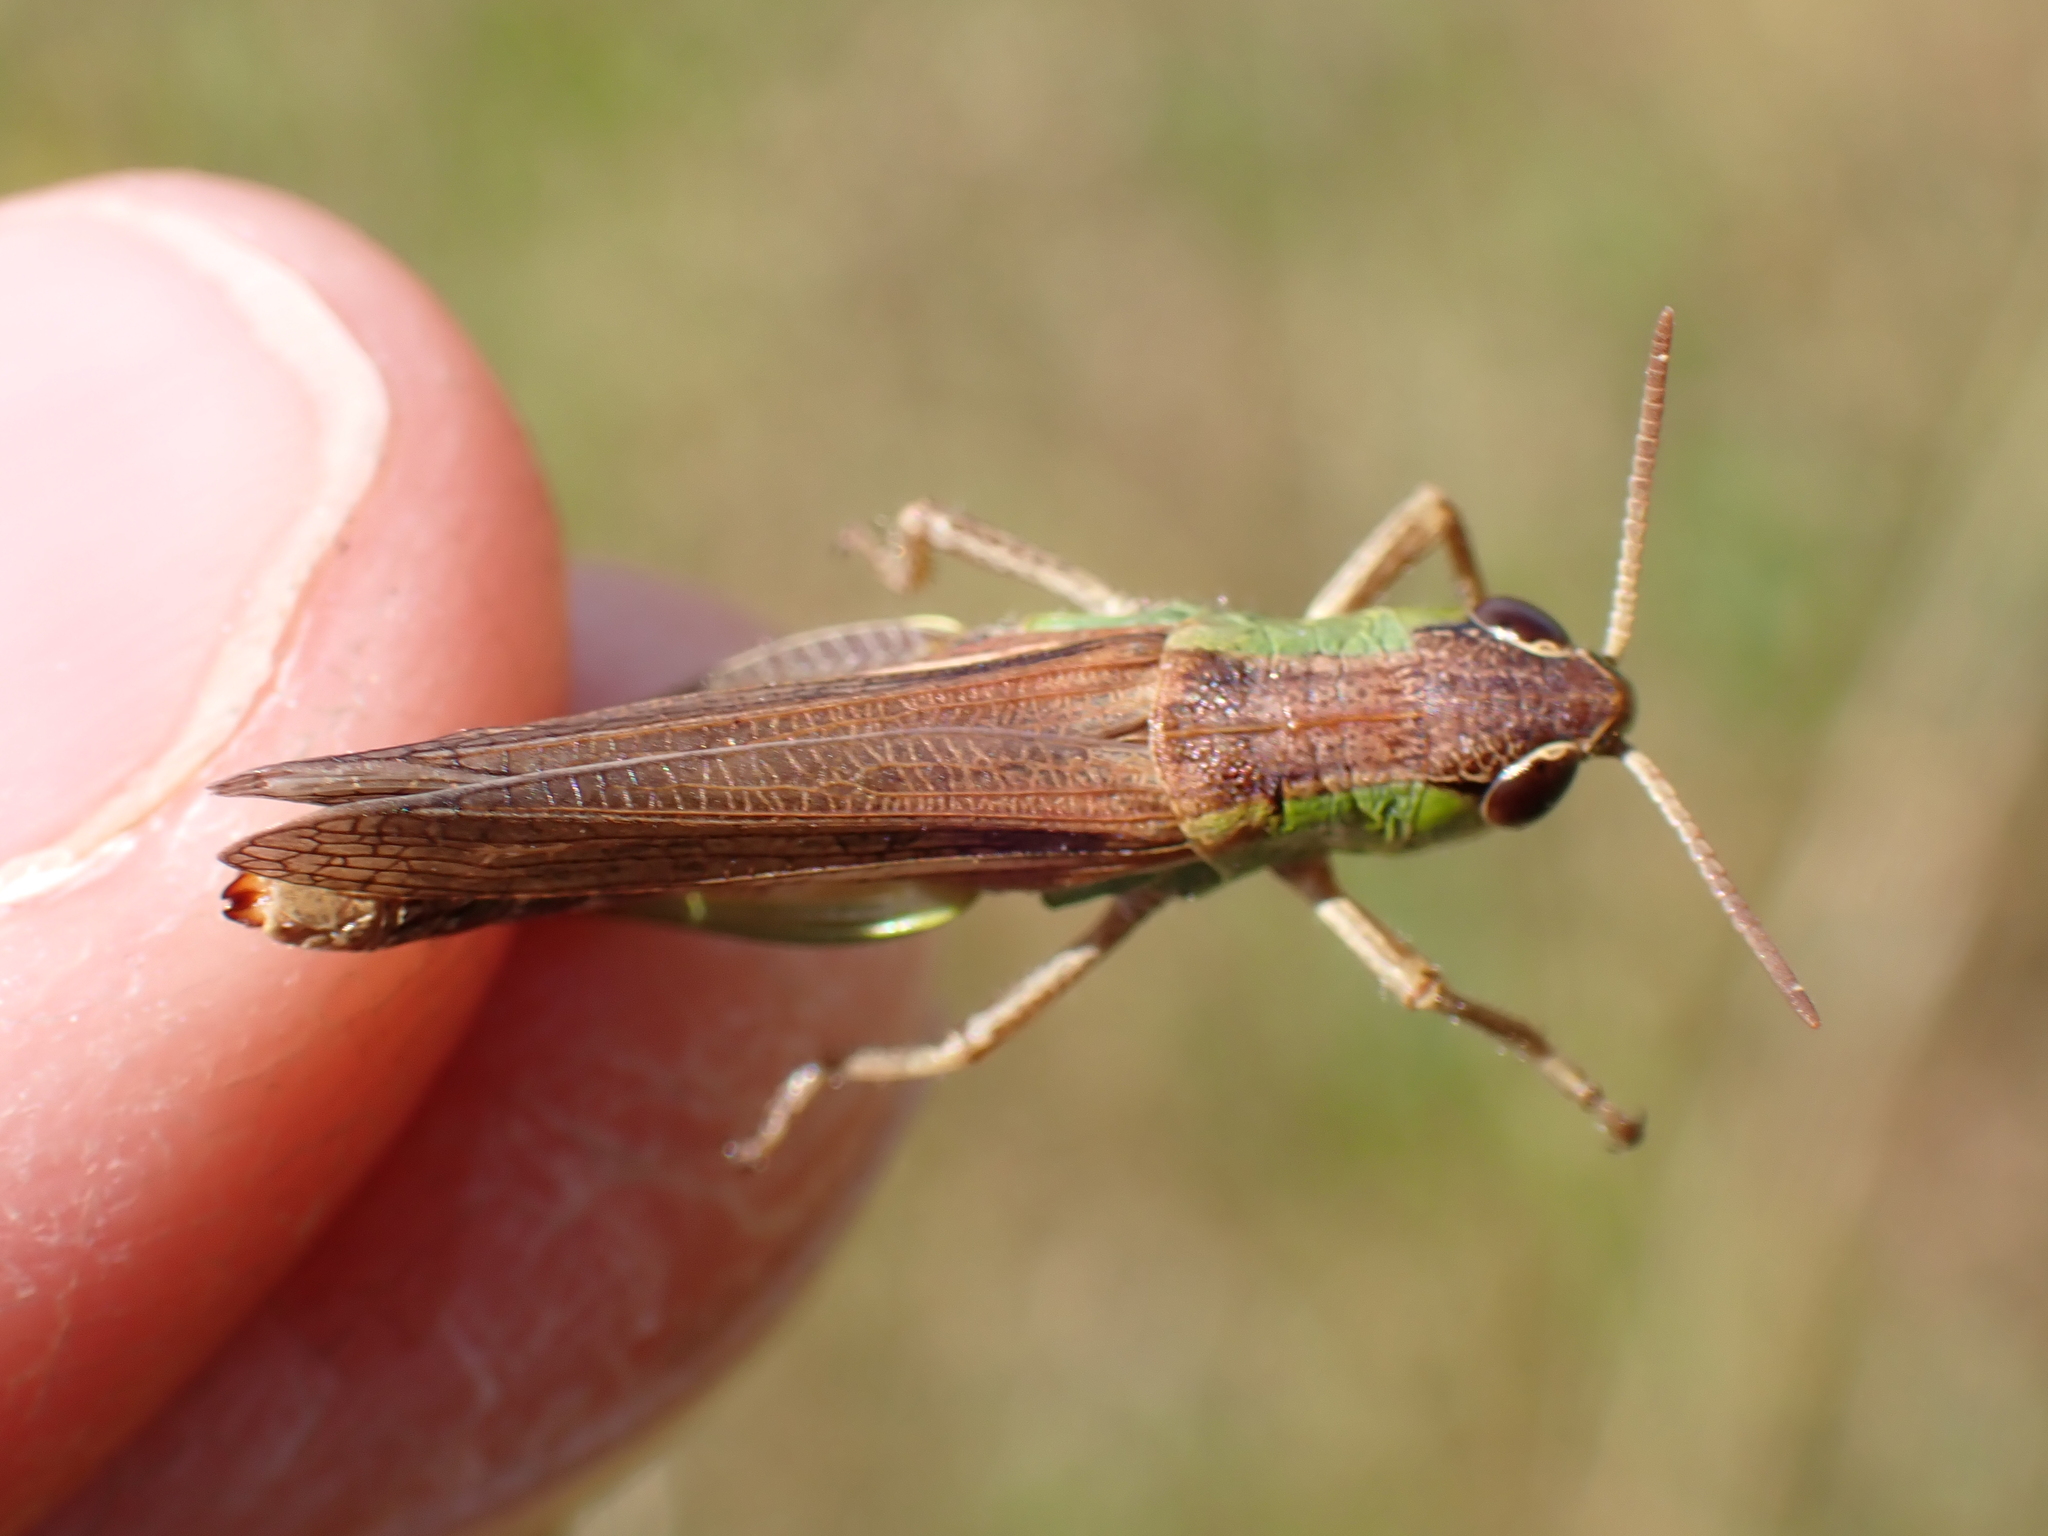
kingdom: Animalia
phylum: Arthropoda
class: Insecta
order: Orthoptera
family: Acrididae
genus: Pseudochorthippus
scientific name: Pseudochorthippus parallelus
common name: Meadow grasshopper
